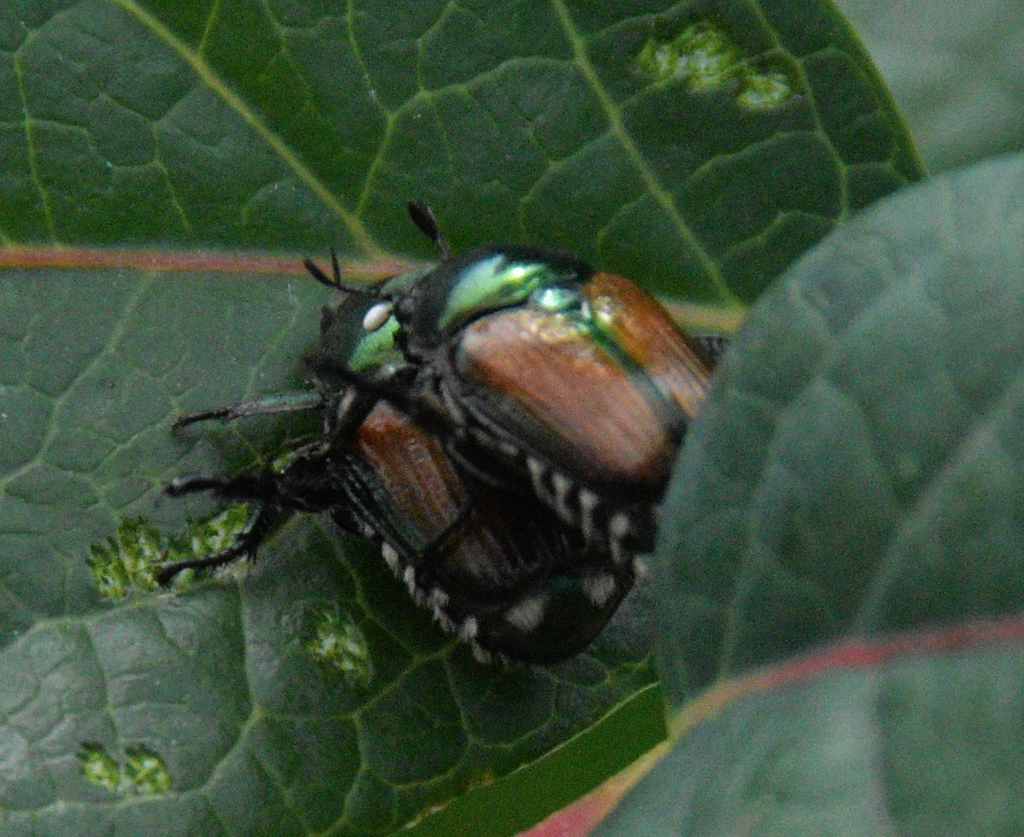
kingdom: Animalia
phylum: Arthropoda
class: Insecta
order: Diptera
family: Tachinidae
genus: Istocheta
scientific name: Istocheta aldrichi
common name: Parasitic wasp
